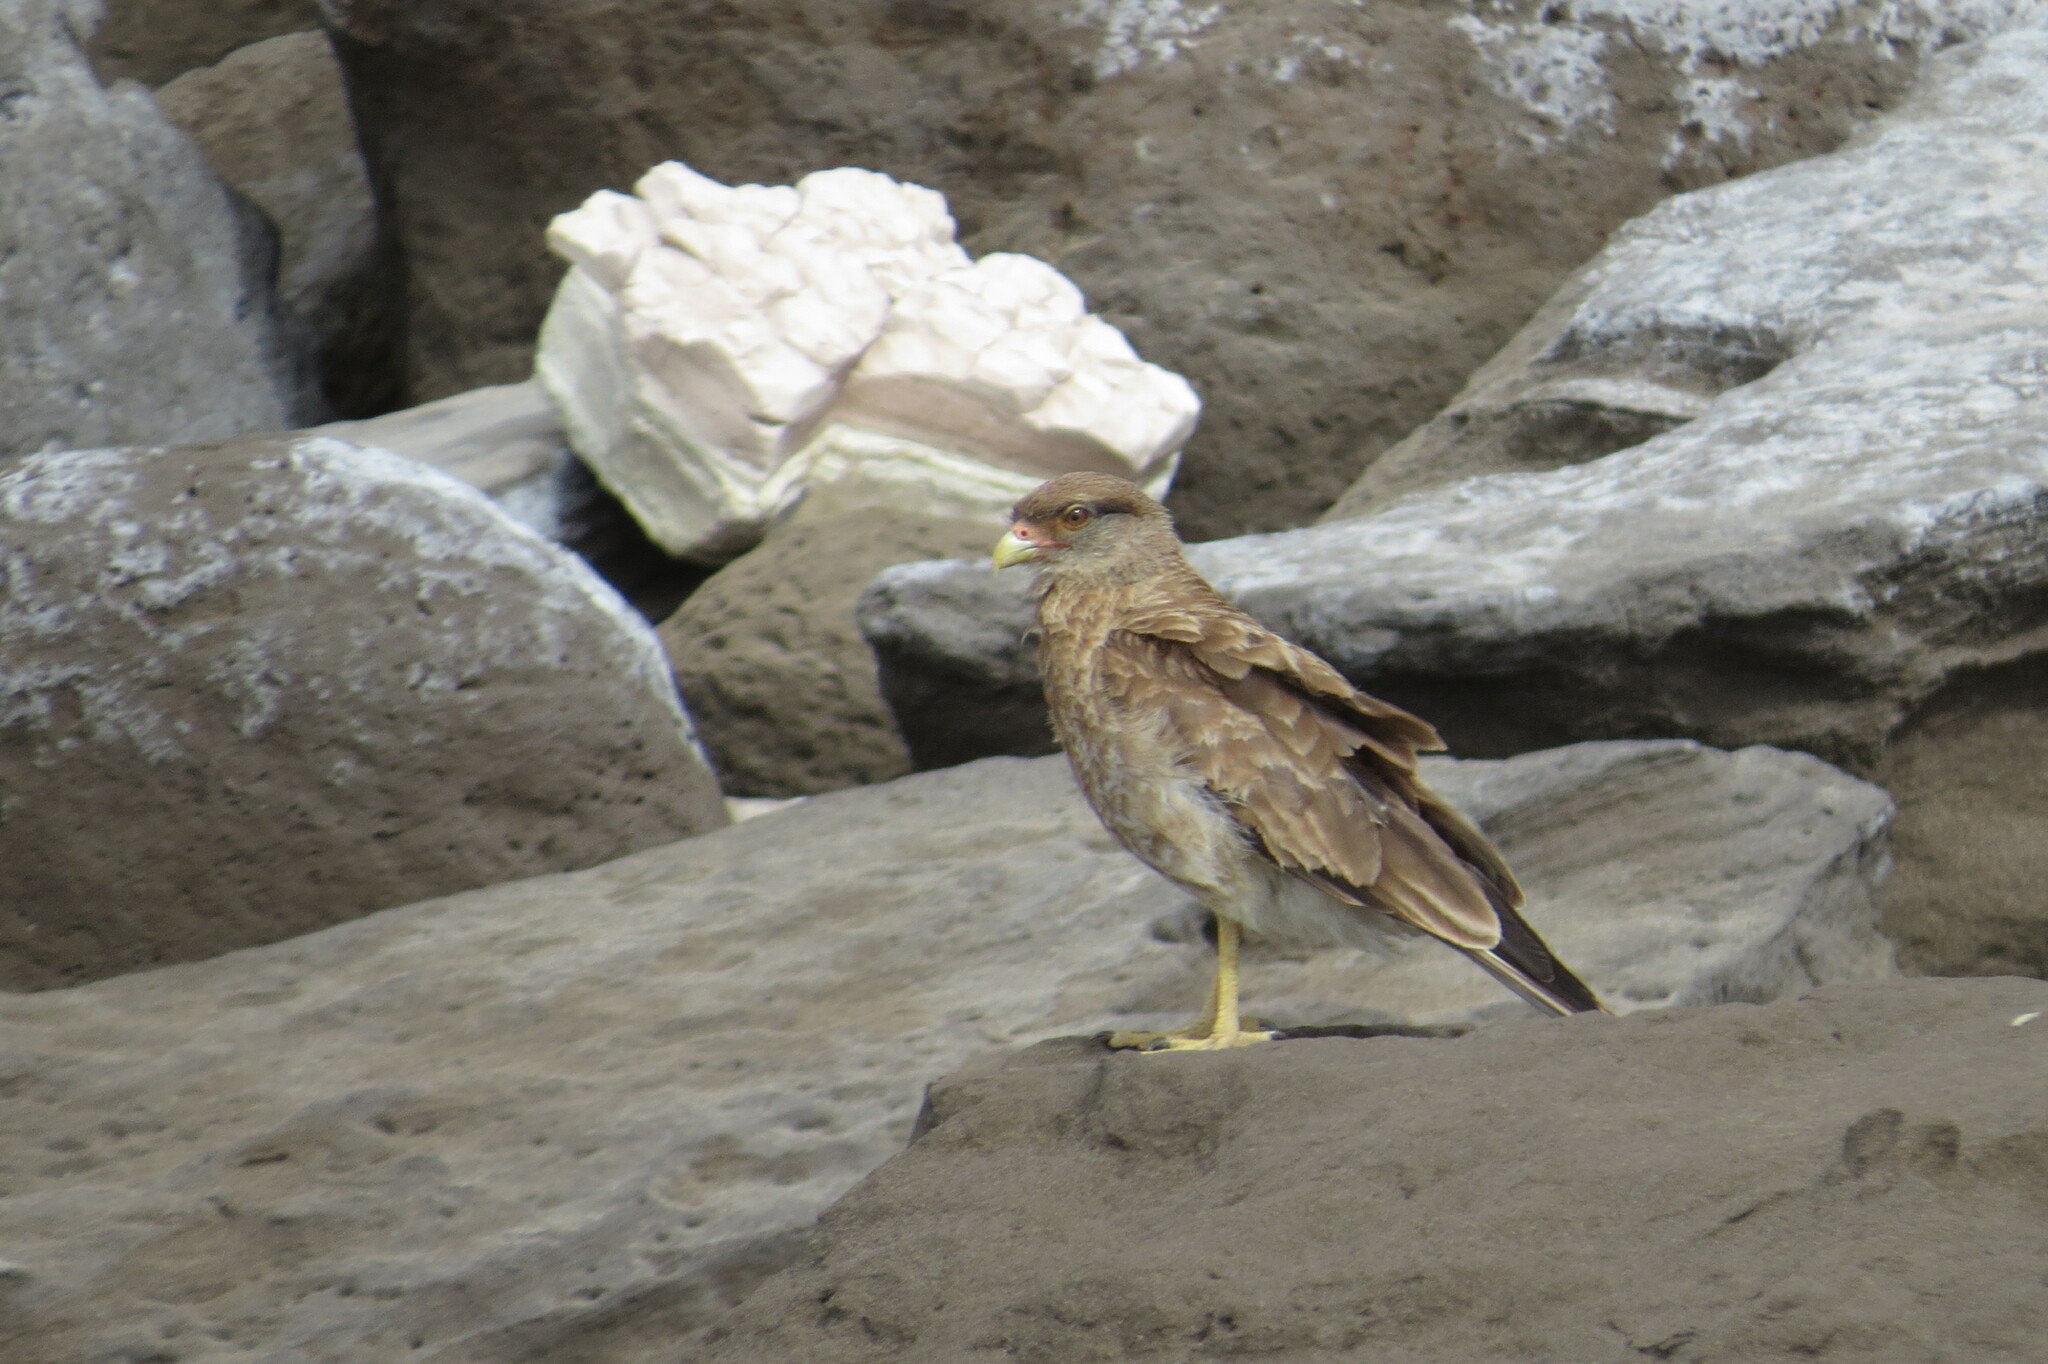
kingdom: Animalia
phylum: Chordata
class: Aves
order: Falconiformes
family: Falconidae
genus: Daptrius
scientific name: Daptrius
